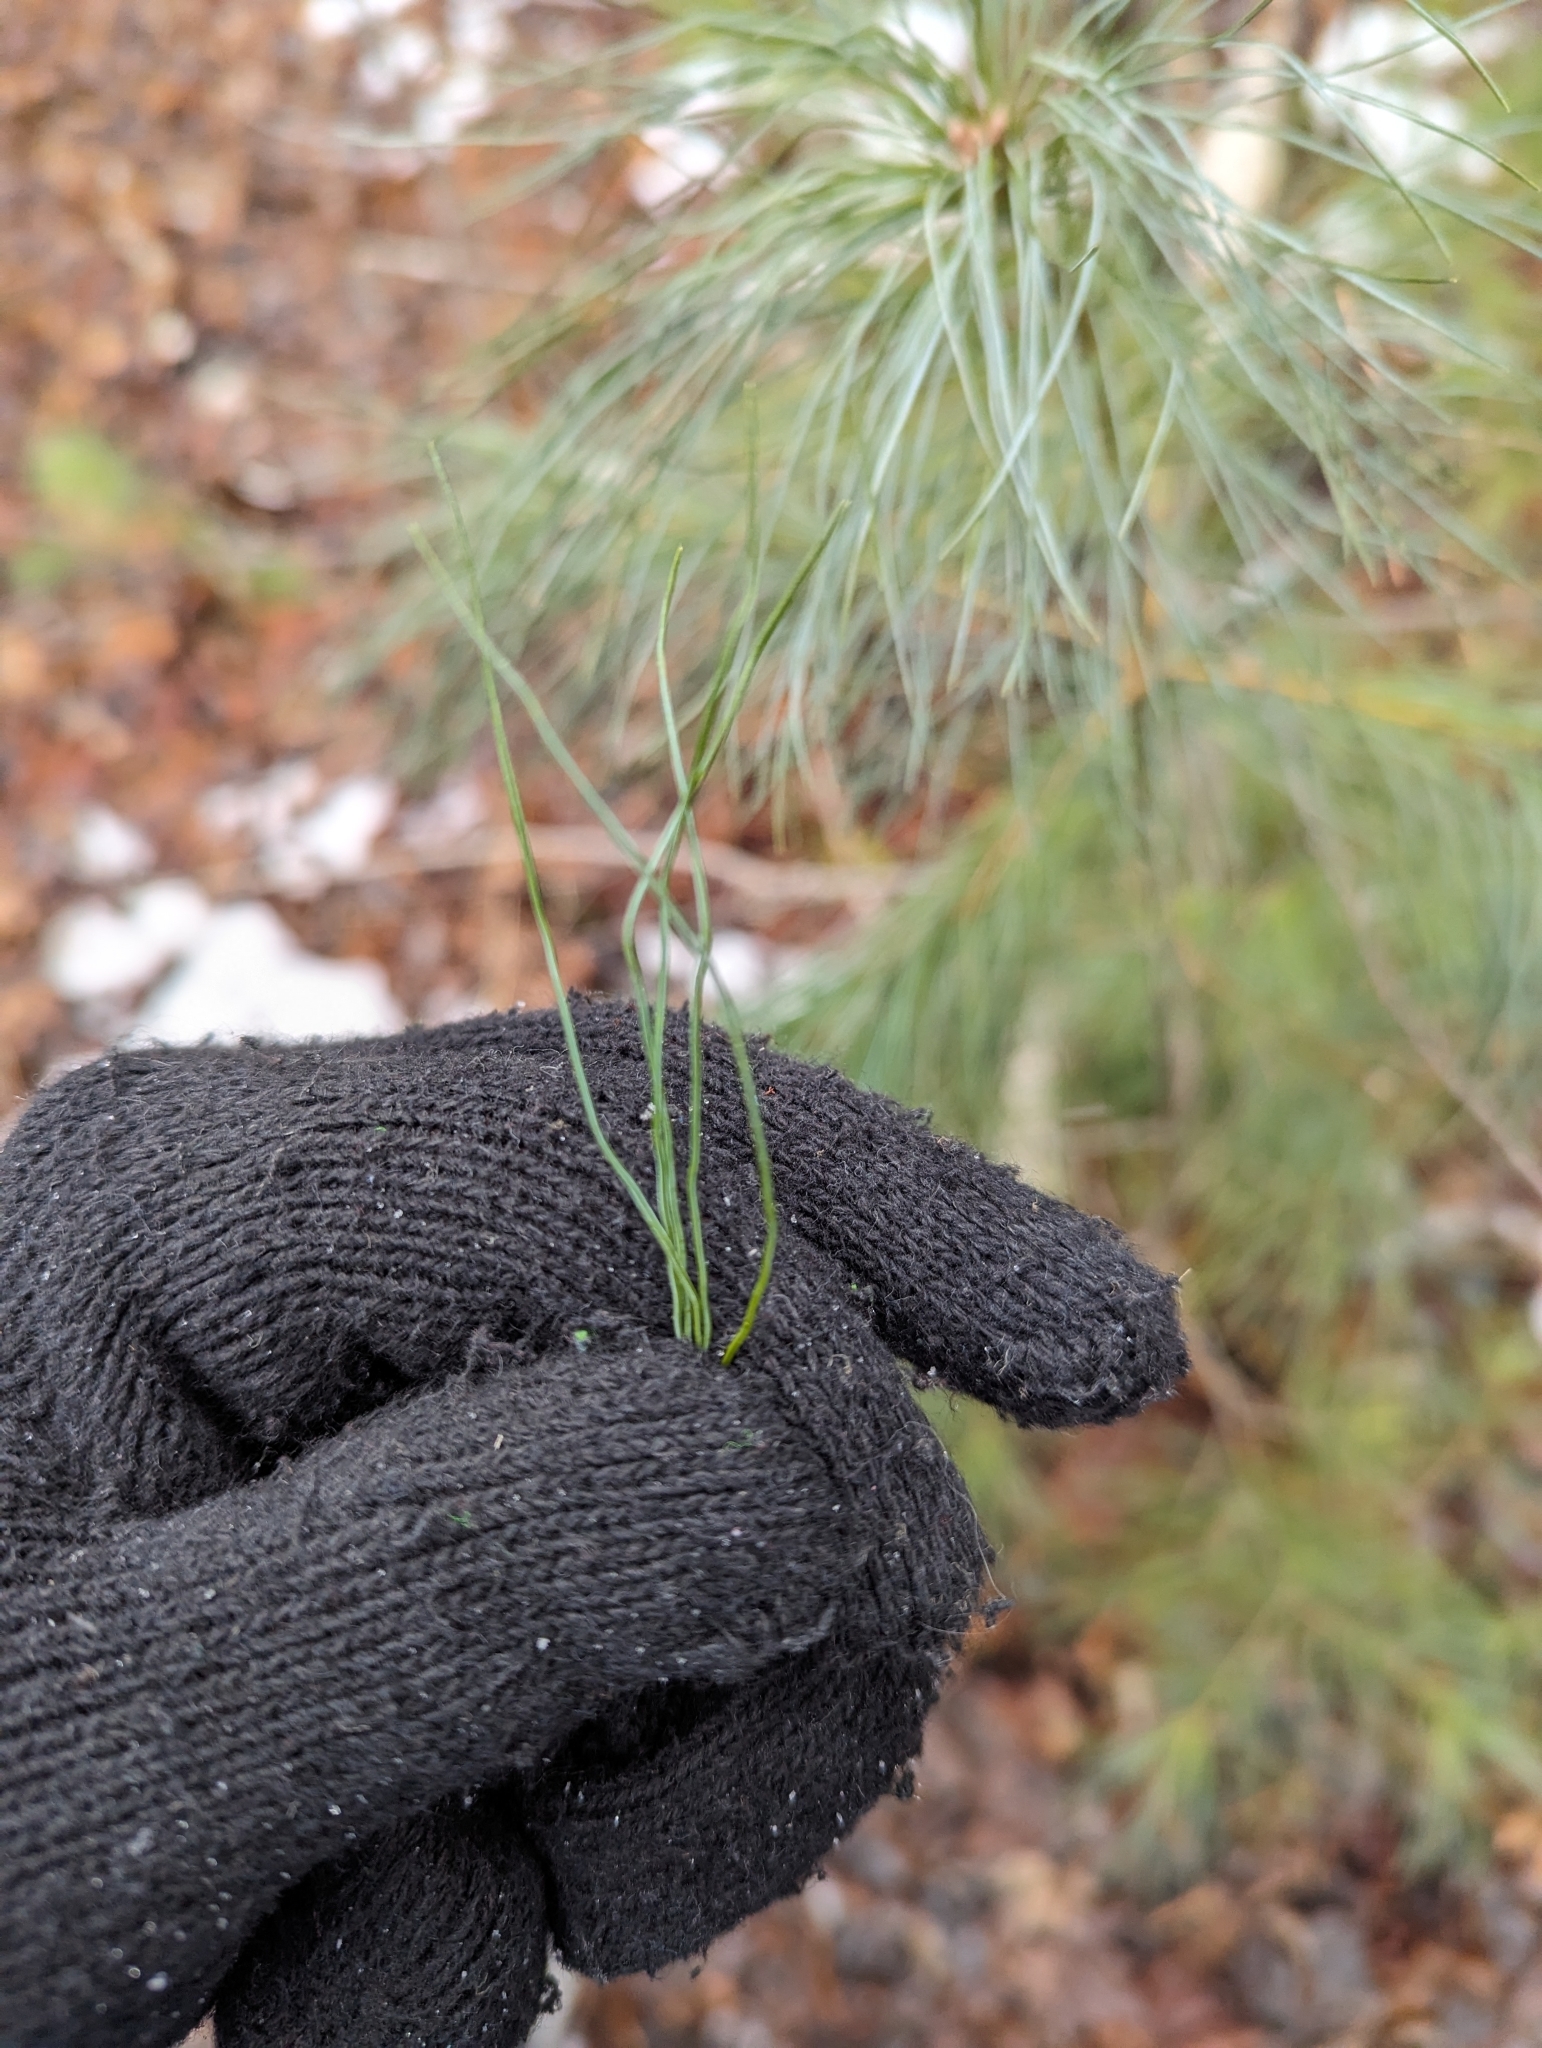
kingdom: Plantae
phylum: Tracheophyta
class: Pinopsida
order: Pinales
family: Pinaceae
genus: Pinus
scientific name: Pinus strobus
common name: Weymouth pine
